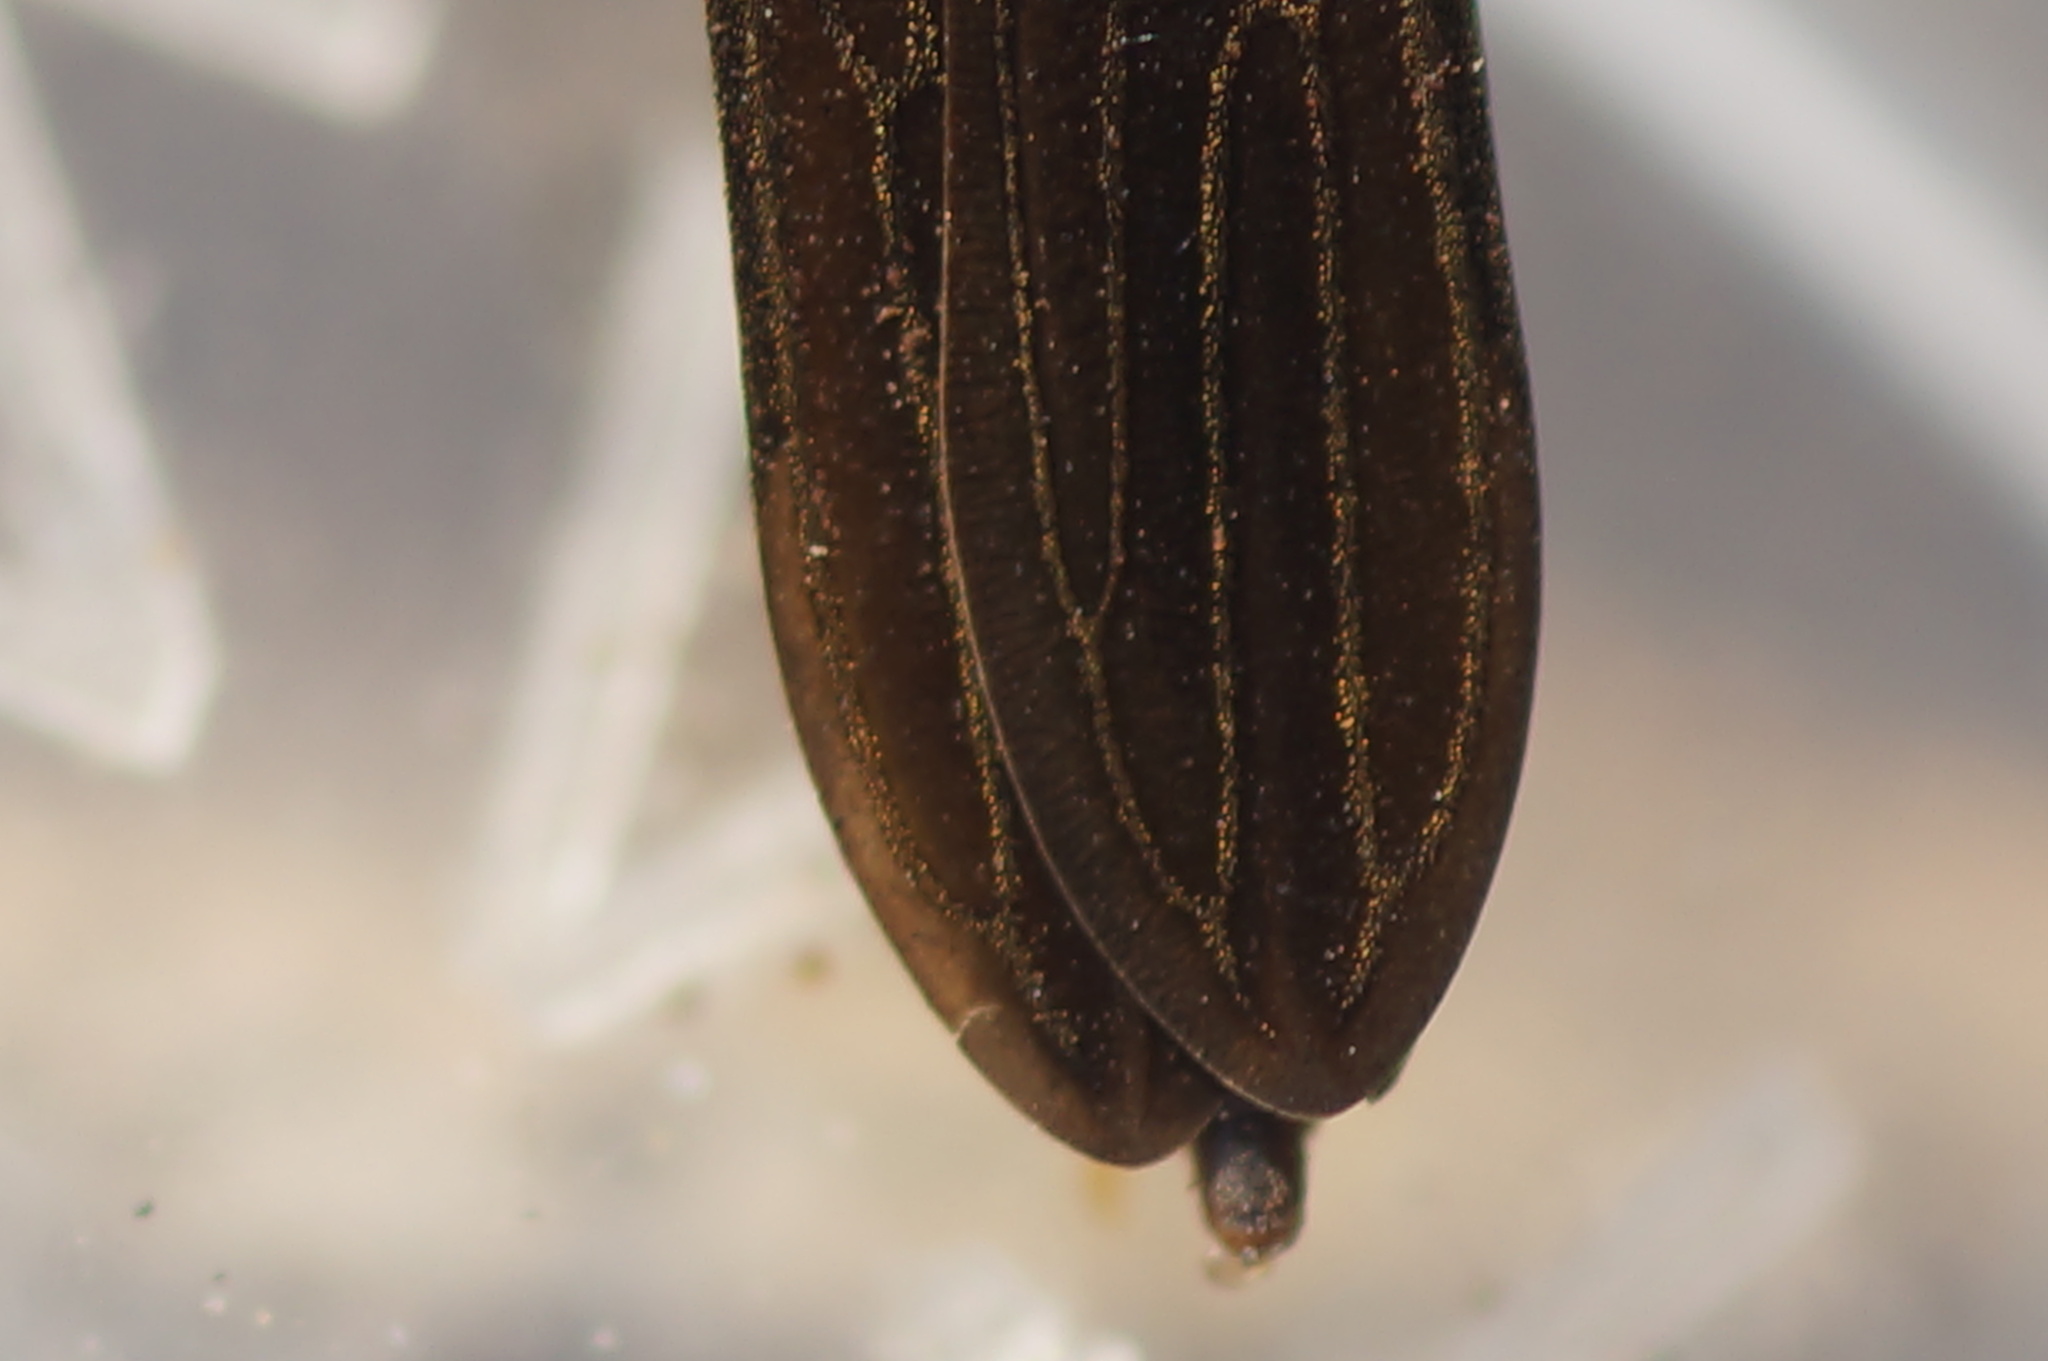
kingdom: Animalia
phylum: Arthropoda
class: Insecta
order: Hemiptera
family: Gerridae
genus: Gerris
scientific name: Gerris
